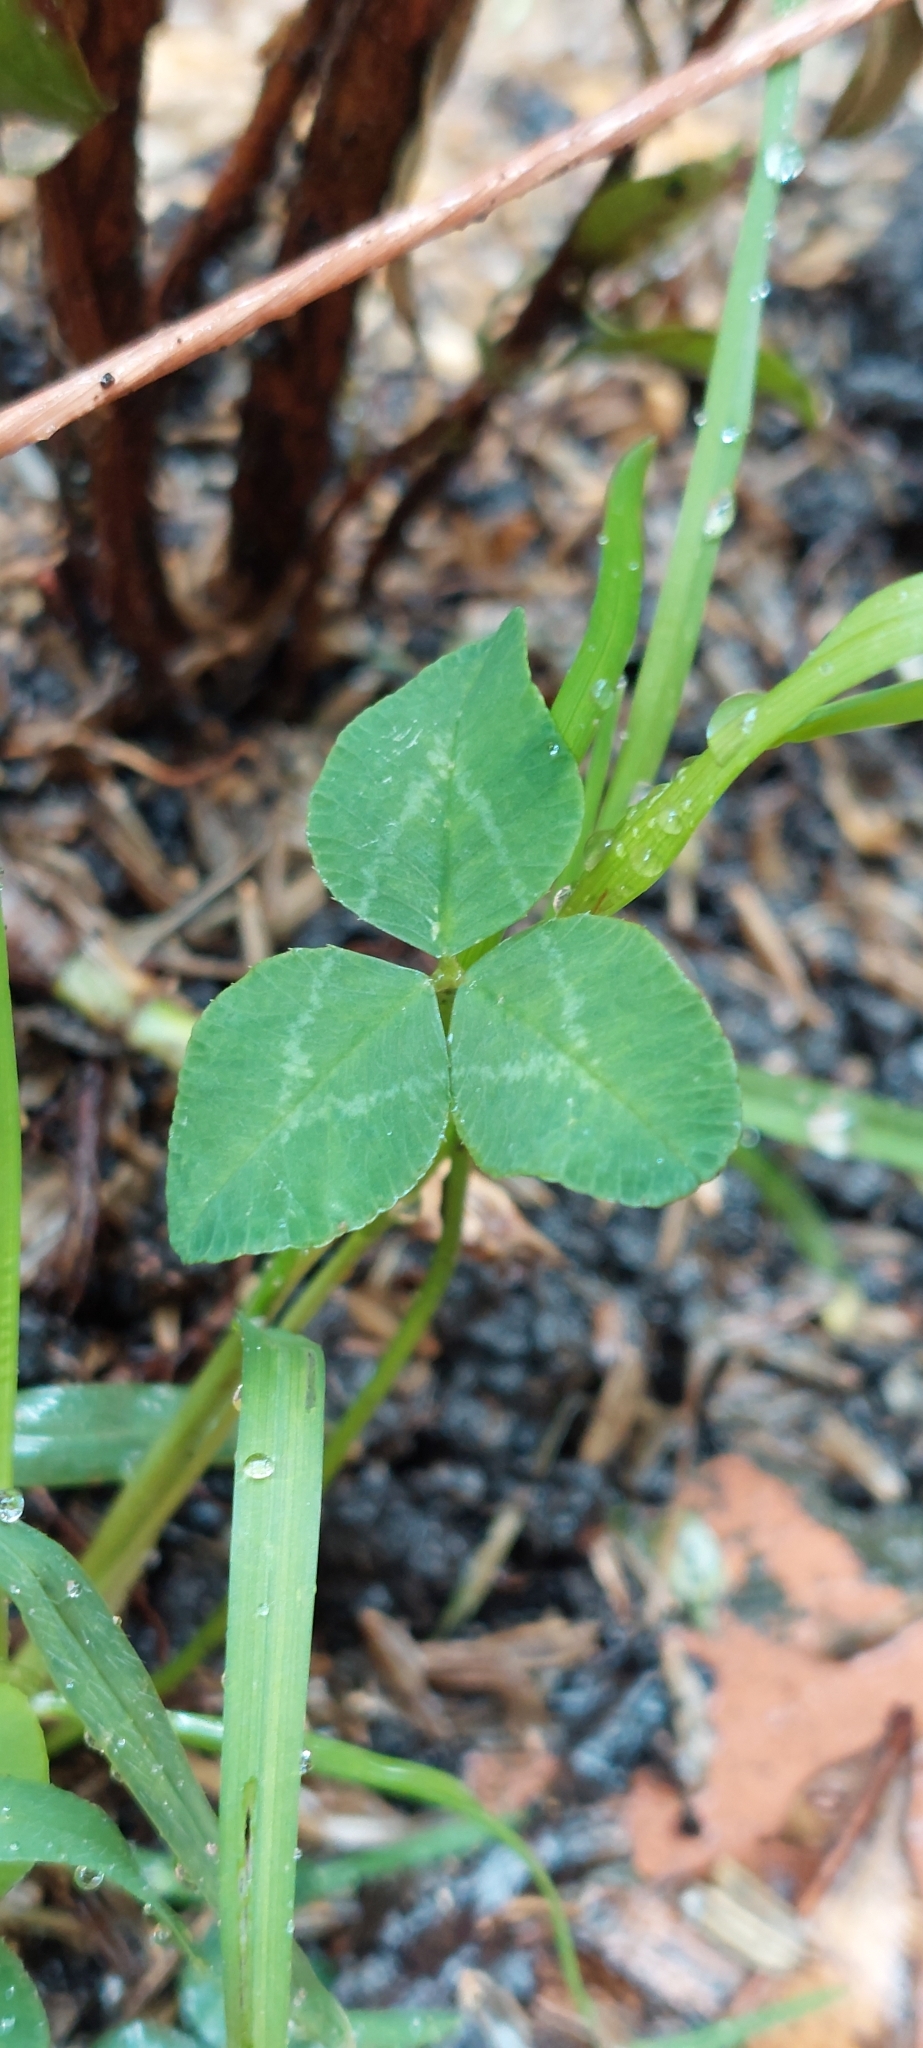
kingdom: Plantae
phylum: Tracheophyta
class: Magnoliopsida
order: Fabales
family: Fabaceae
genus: Trifolium
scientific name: Trifolium repens
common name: White clover
